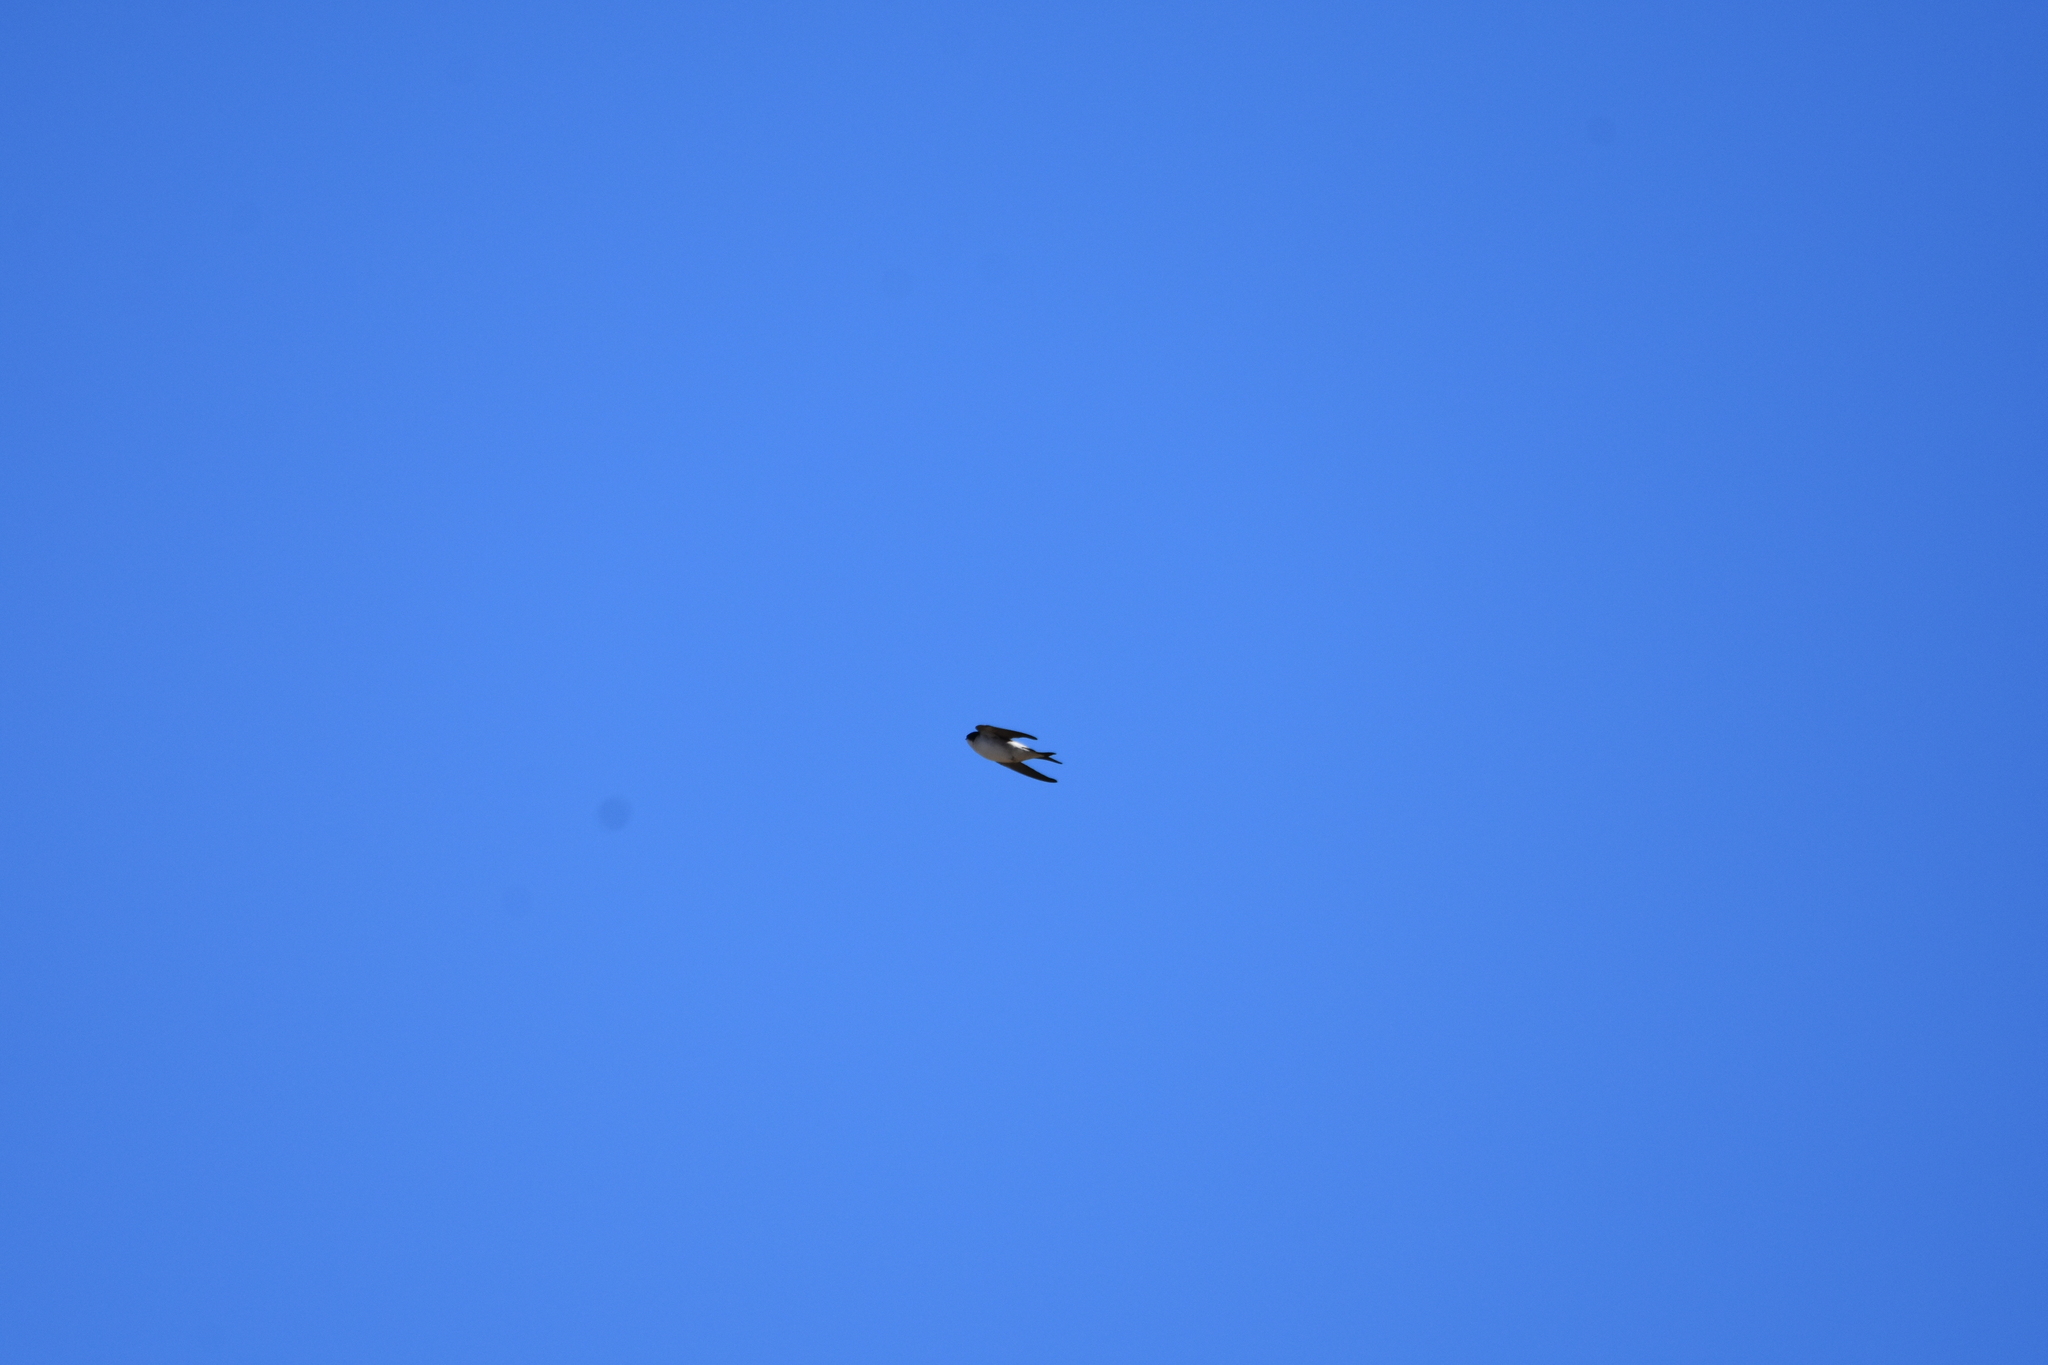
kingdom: Animalia
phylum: Chordata
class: Aves
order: Passeriformes
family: Hirundinidae
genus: Delichon
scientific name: Delichon urbicum
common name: Common house martin
